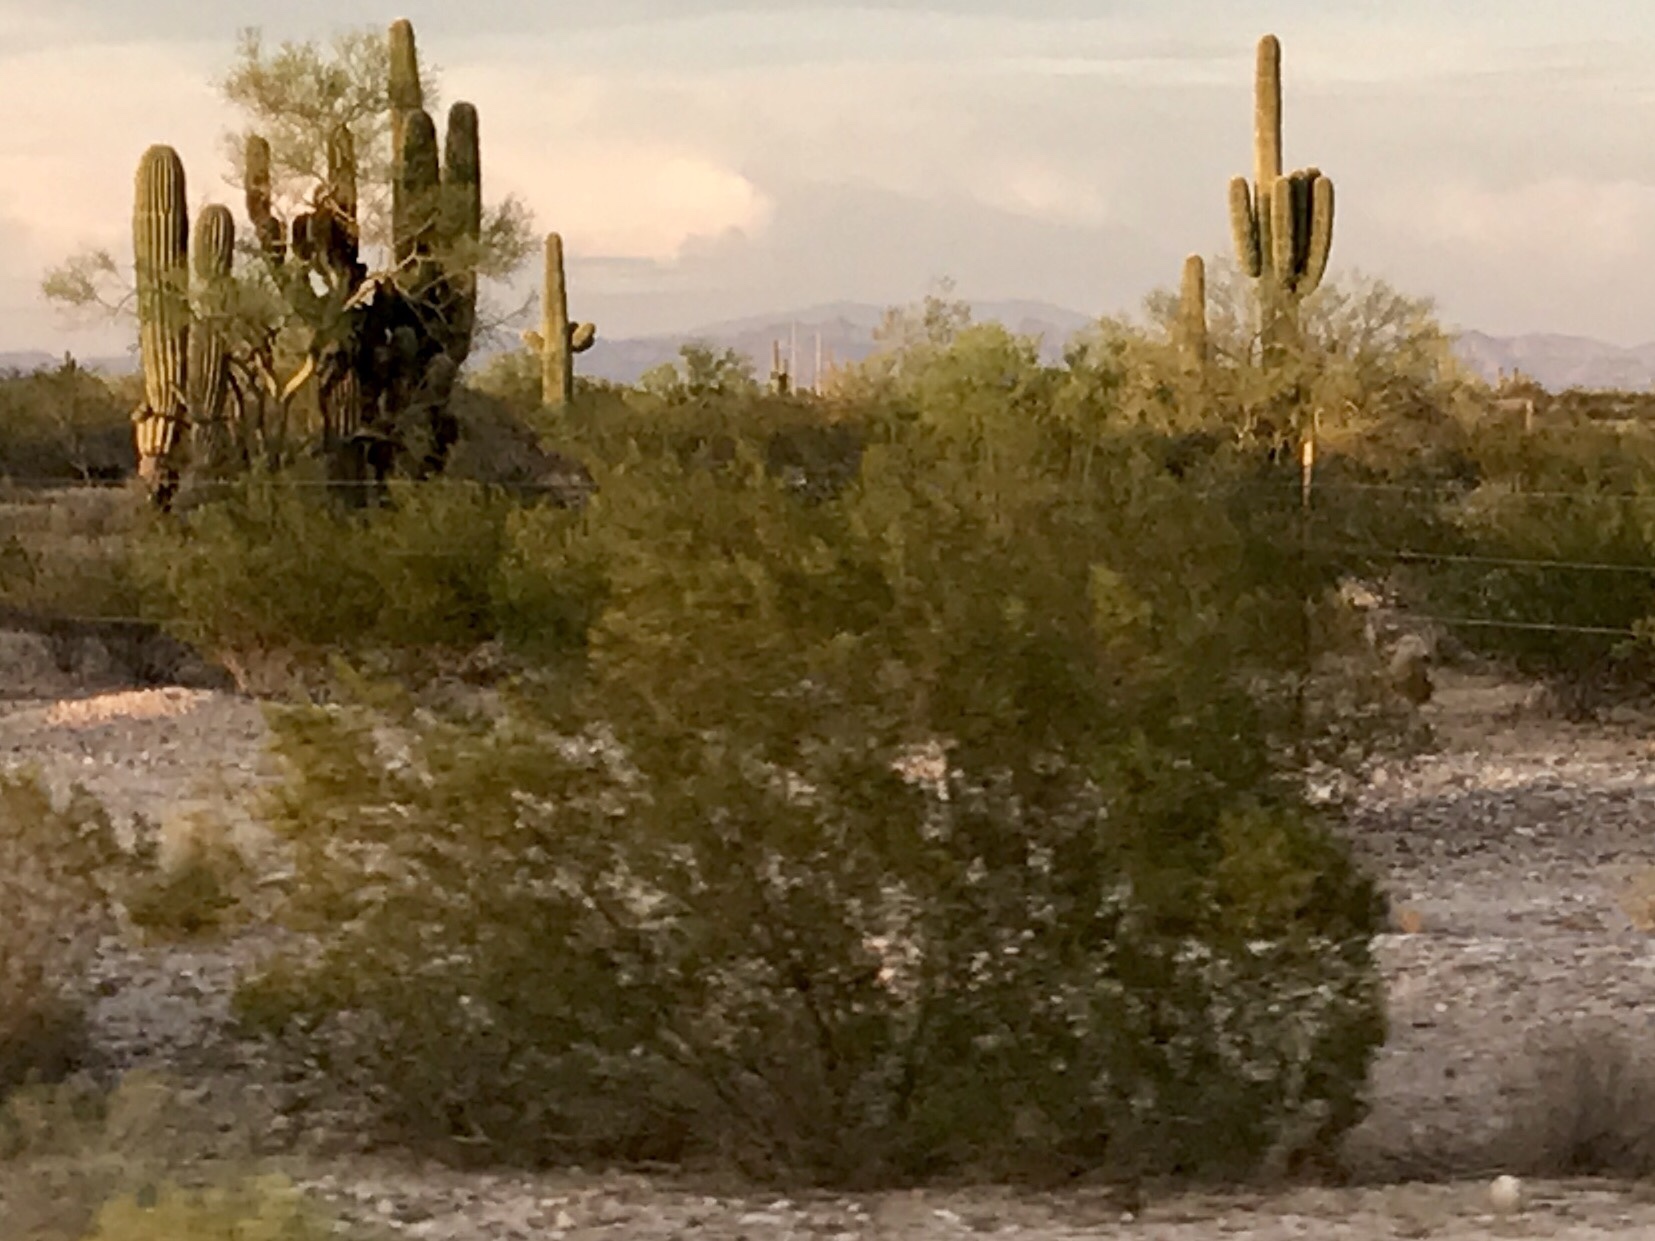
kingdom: Plantae
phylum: Tracheophyta
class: Magnoliopsida
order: Zygophyllales
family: Zygophyllaceae
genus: Larrea
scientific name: Larrea tridentata
